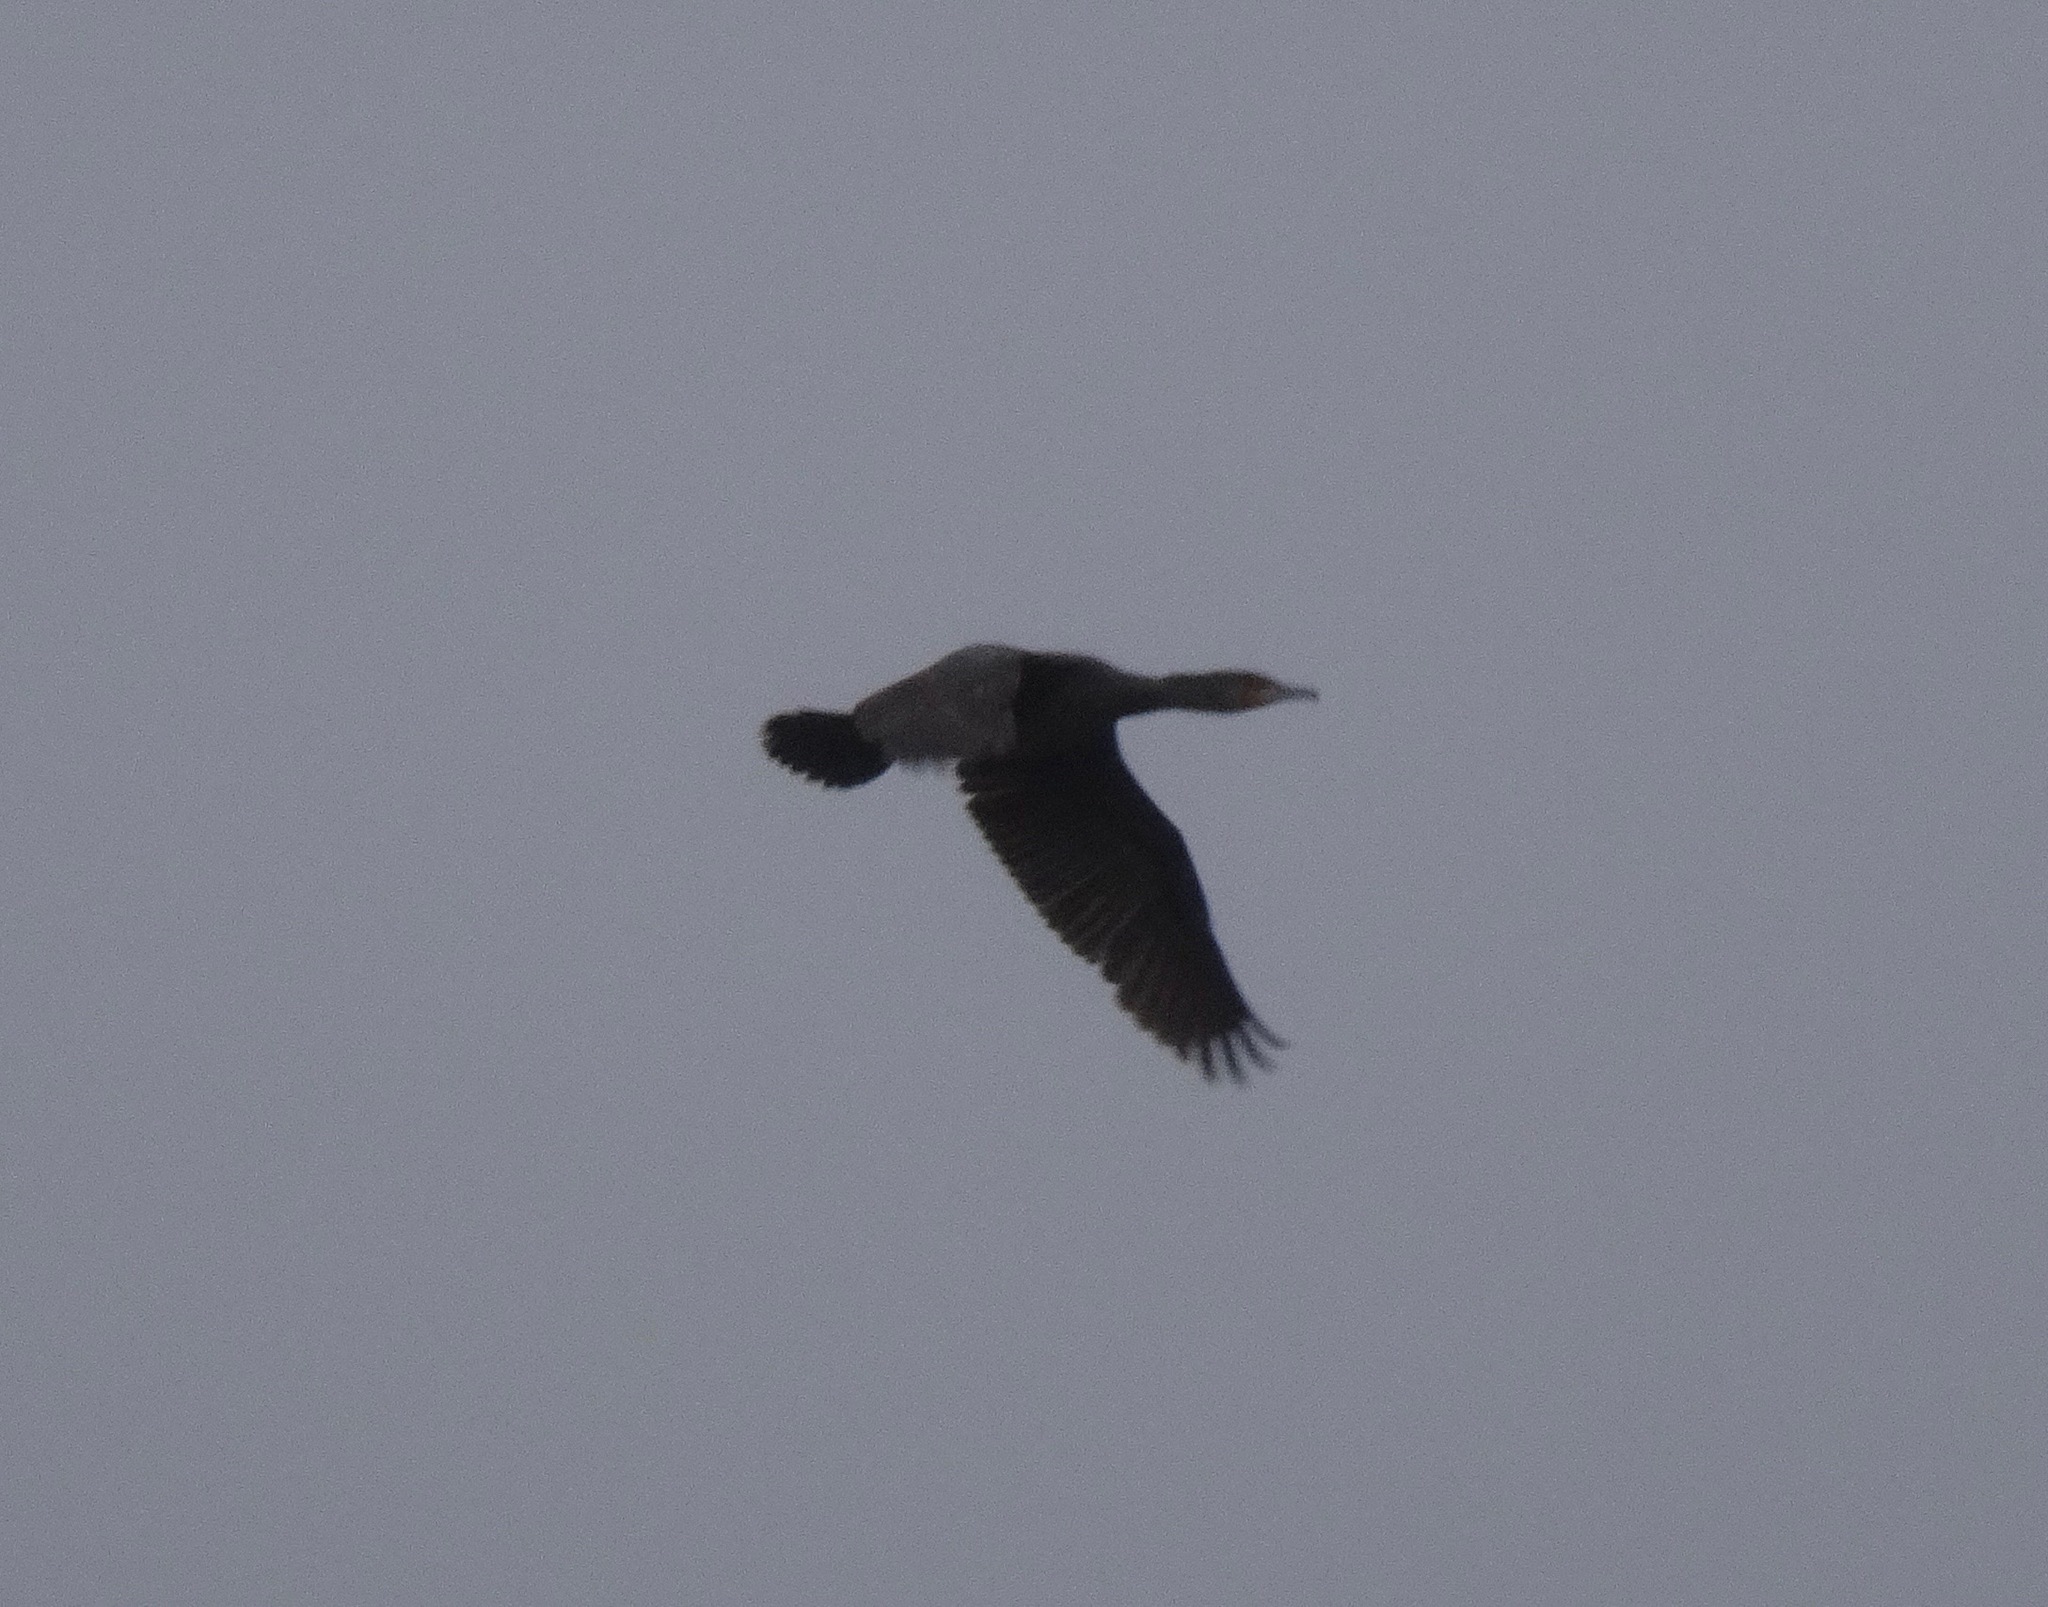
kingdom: Animalia
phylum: Chordata
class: Aves
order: Suliformes
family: Phalacrocoracidae
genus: Phalacrocorax
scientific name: Phalacrocorax carbo
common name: Great cormorant
